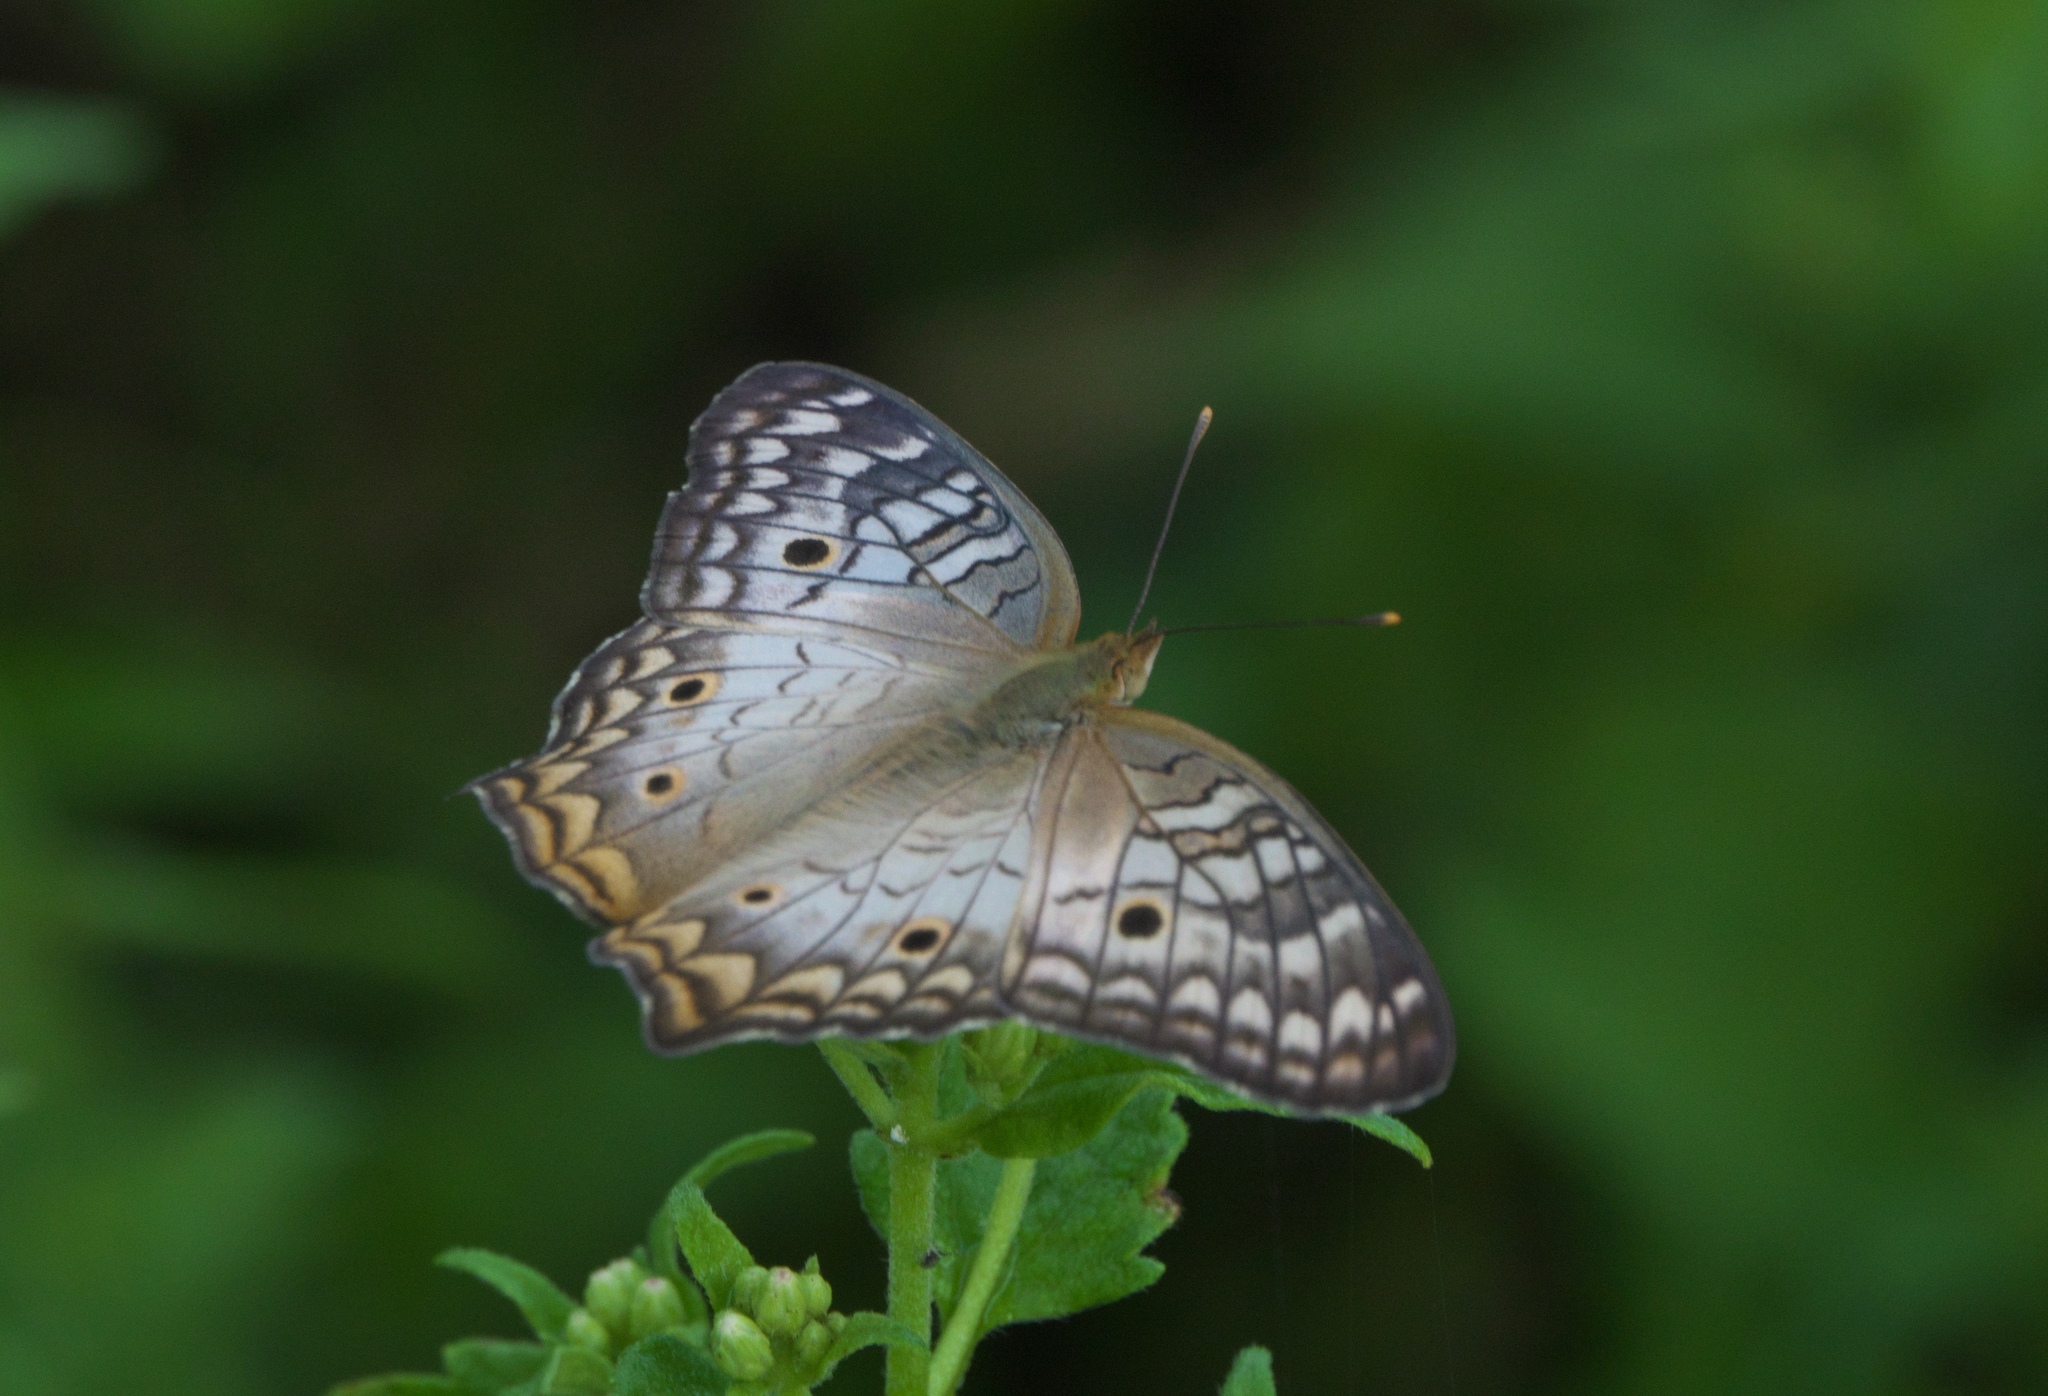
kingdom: Animalia
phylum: Arthropoda
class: Insecta
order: Lepidoptera
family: Nymphalidae
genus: Anartia
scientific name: Anartia jatrophae
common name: White peacock
